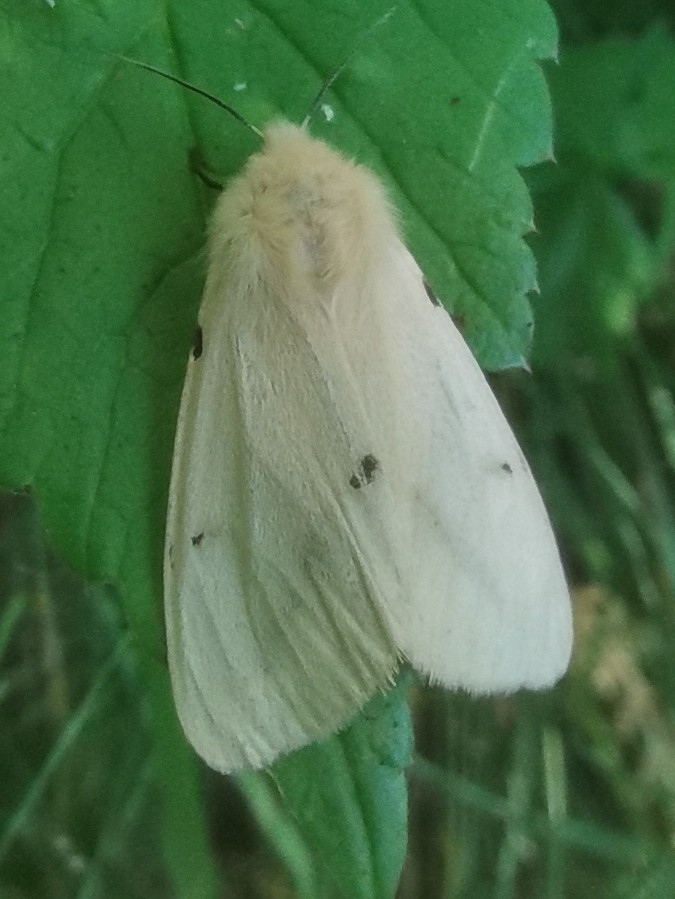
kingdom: Animalia
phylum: Arthropoda
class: Insecta
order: Lepidoptera
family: Erebidae
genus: Spilarctia
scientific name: Spilarctia lutea
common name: Buff ermine
